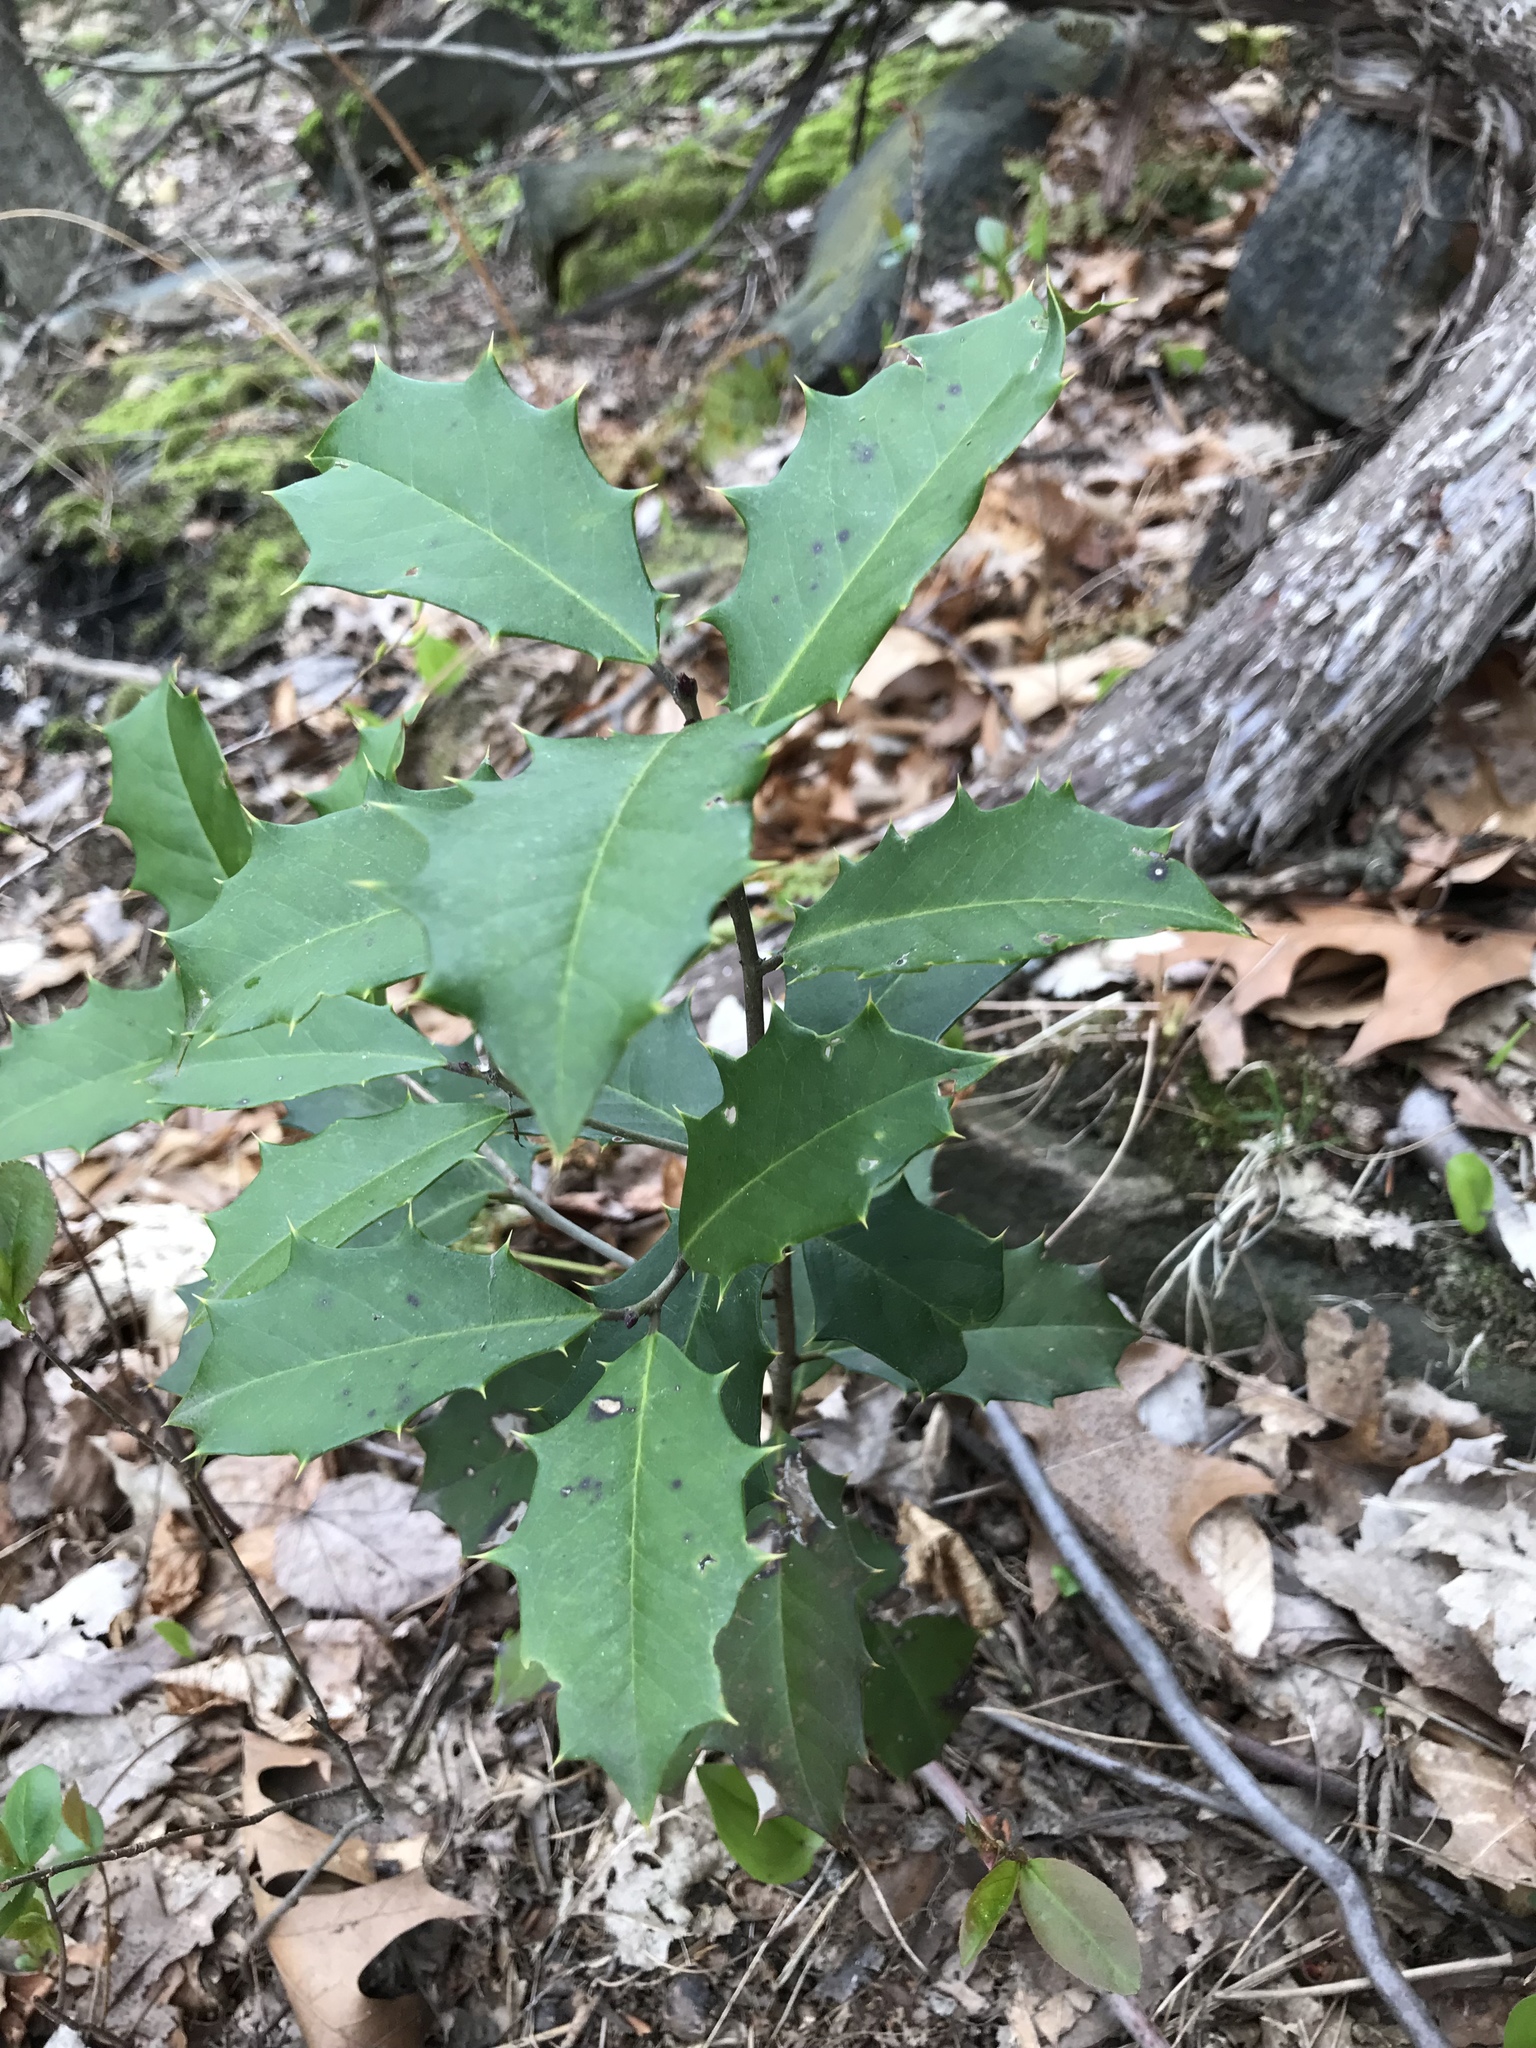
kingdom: Plantae
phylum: Tracheophyta
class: Magnoliopsida
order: Aquifoliales
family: Aquifoliaceae
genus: Ilex
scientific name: Ilex opaca
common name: American holly
